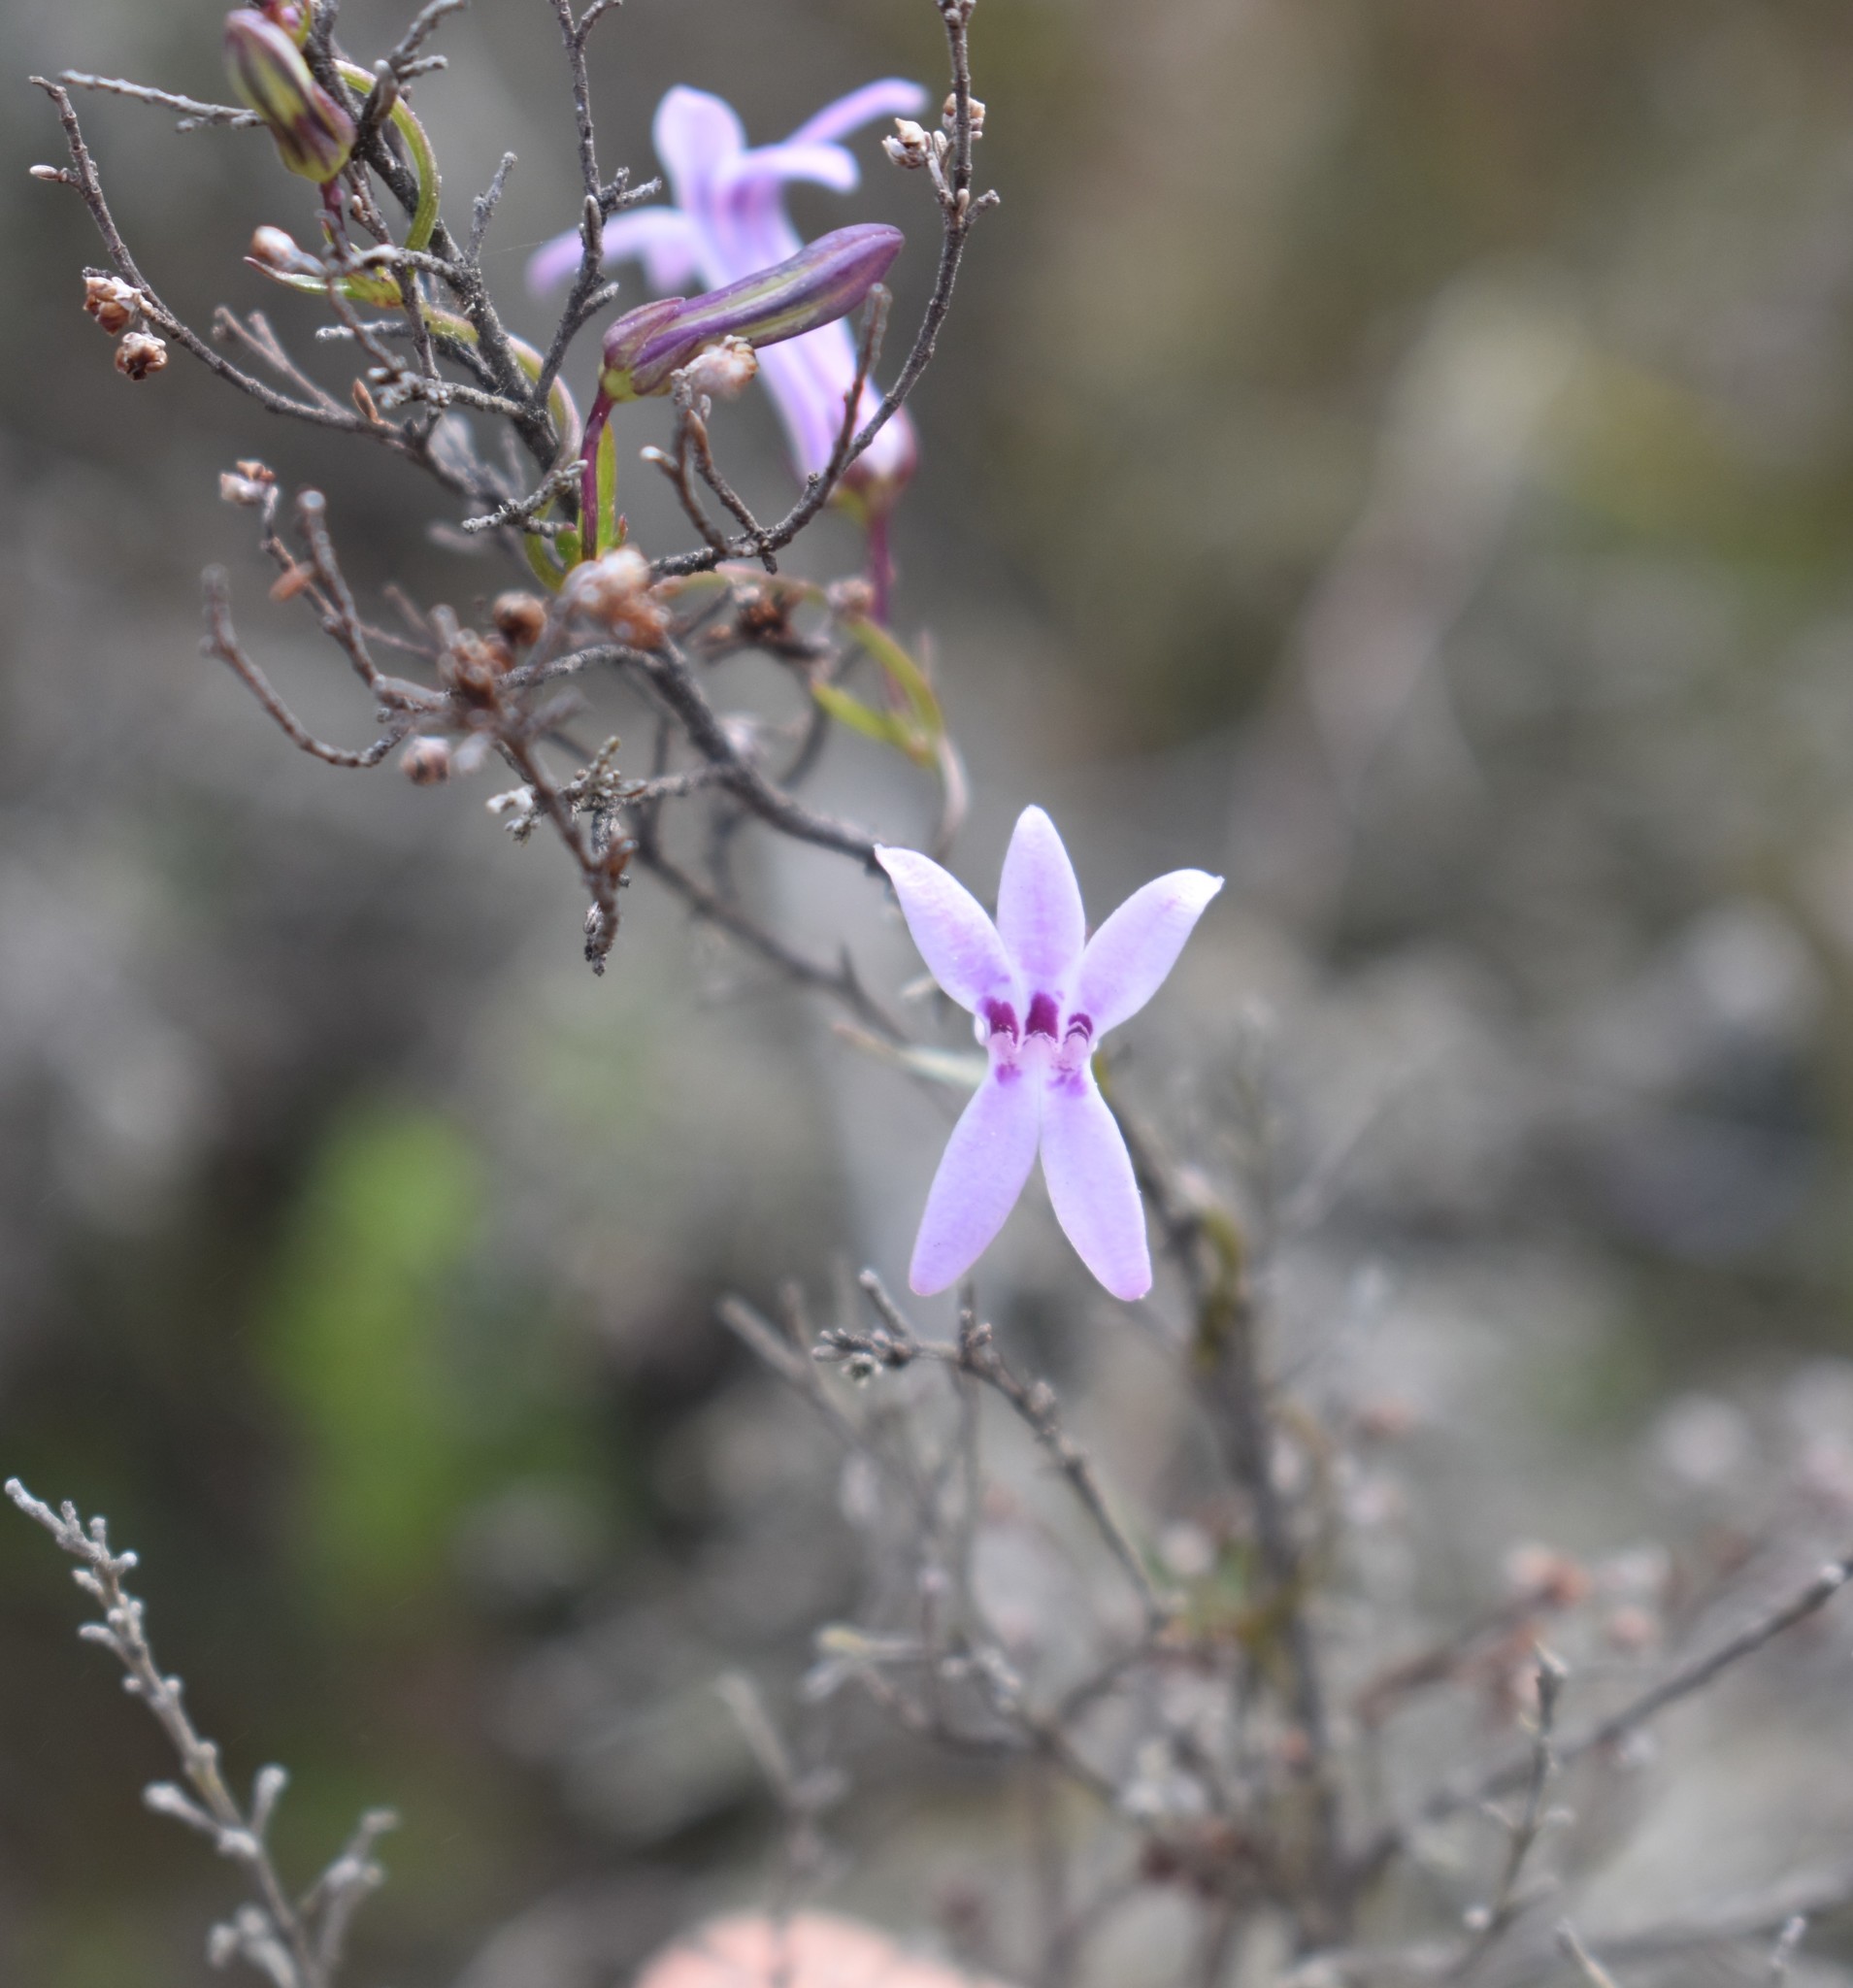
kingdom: Plantae
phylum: Tracheophyta
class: Magnoliopsida
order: Asterales
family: Campanulaceae
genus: Cyphia
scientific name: Cyphia sylvatica
